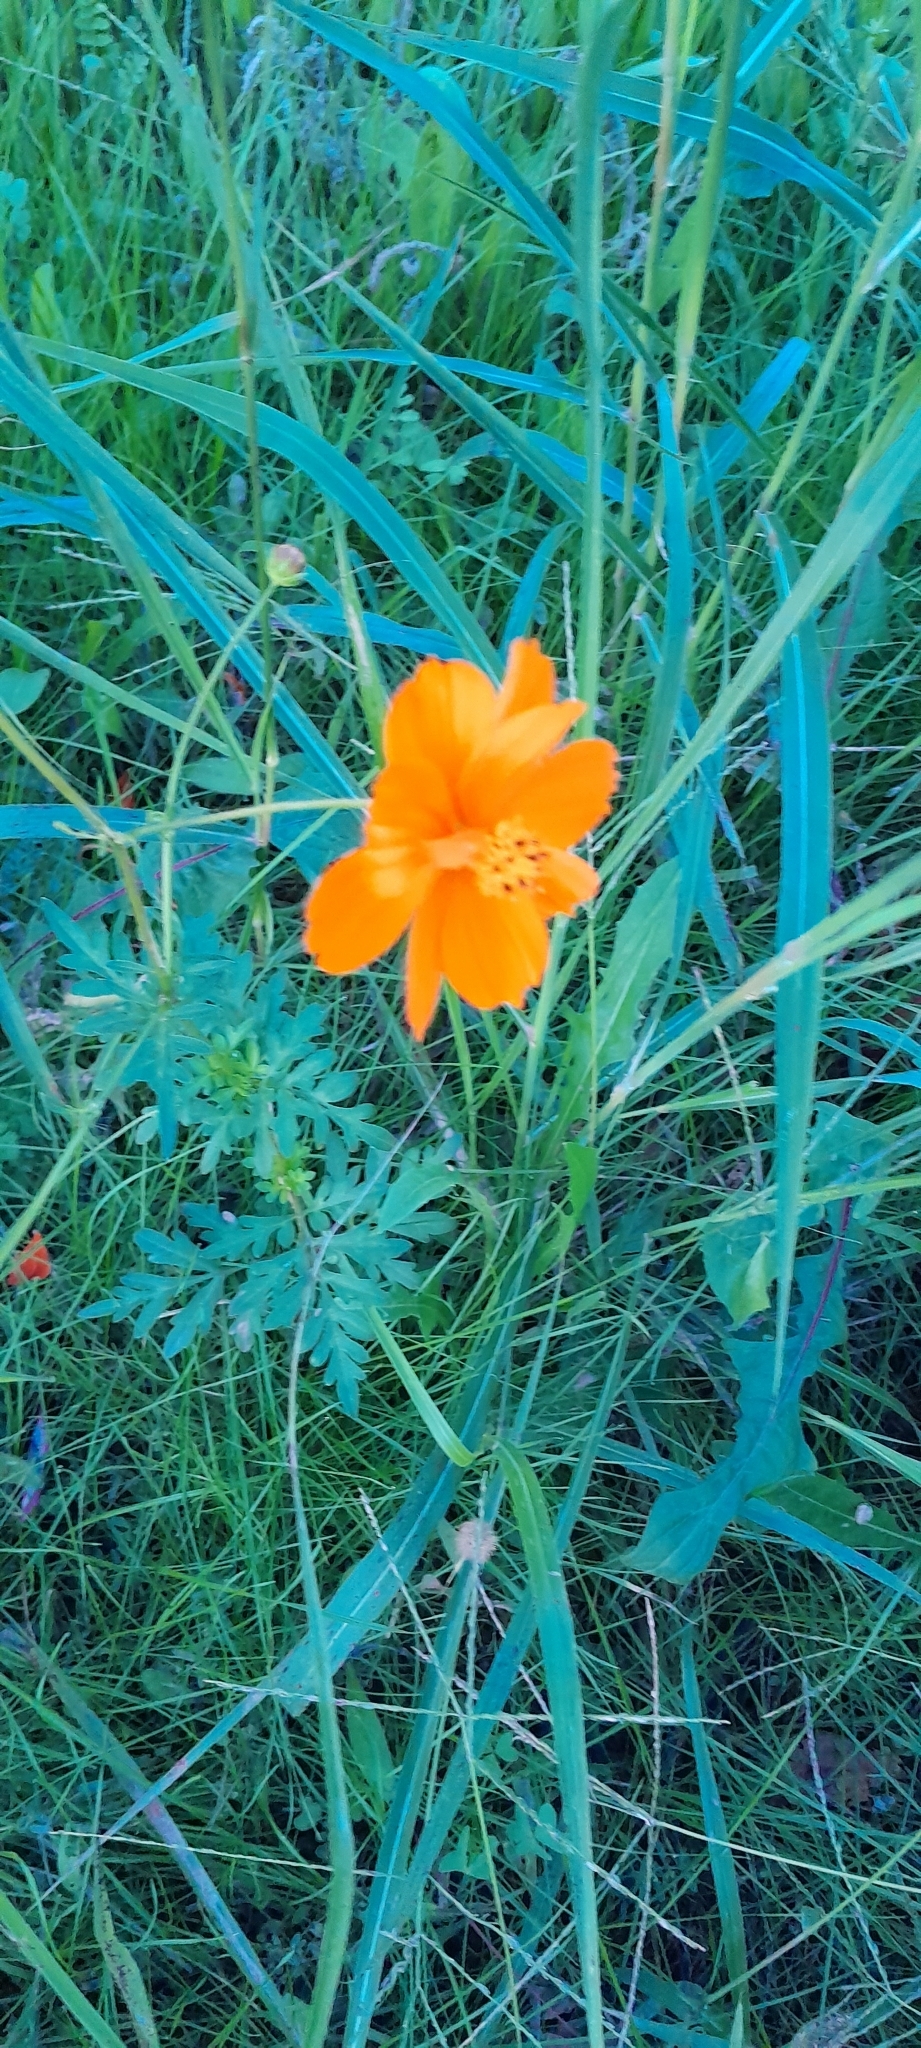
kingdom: Plantae
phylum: Tracheophyta
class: Magnoliopsida
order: Asterales
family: Asteraceae
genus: Cosmos
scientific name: Cosmos sulphureus
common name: Sulphur cosmos
